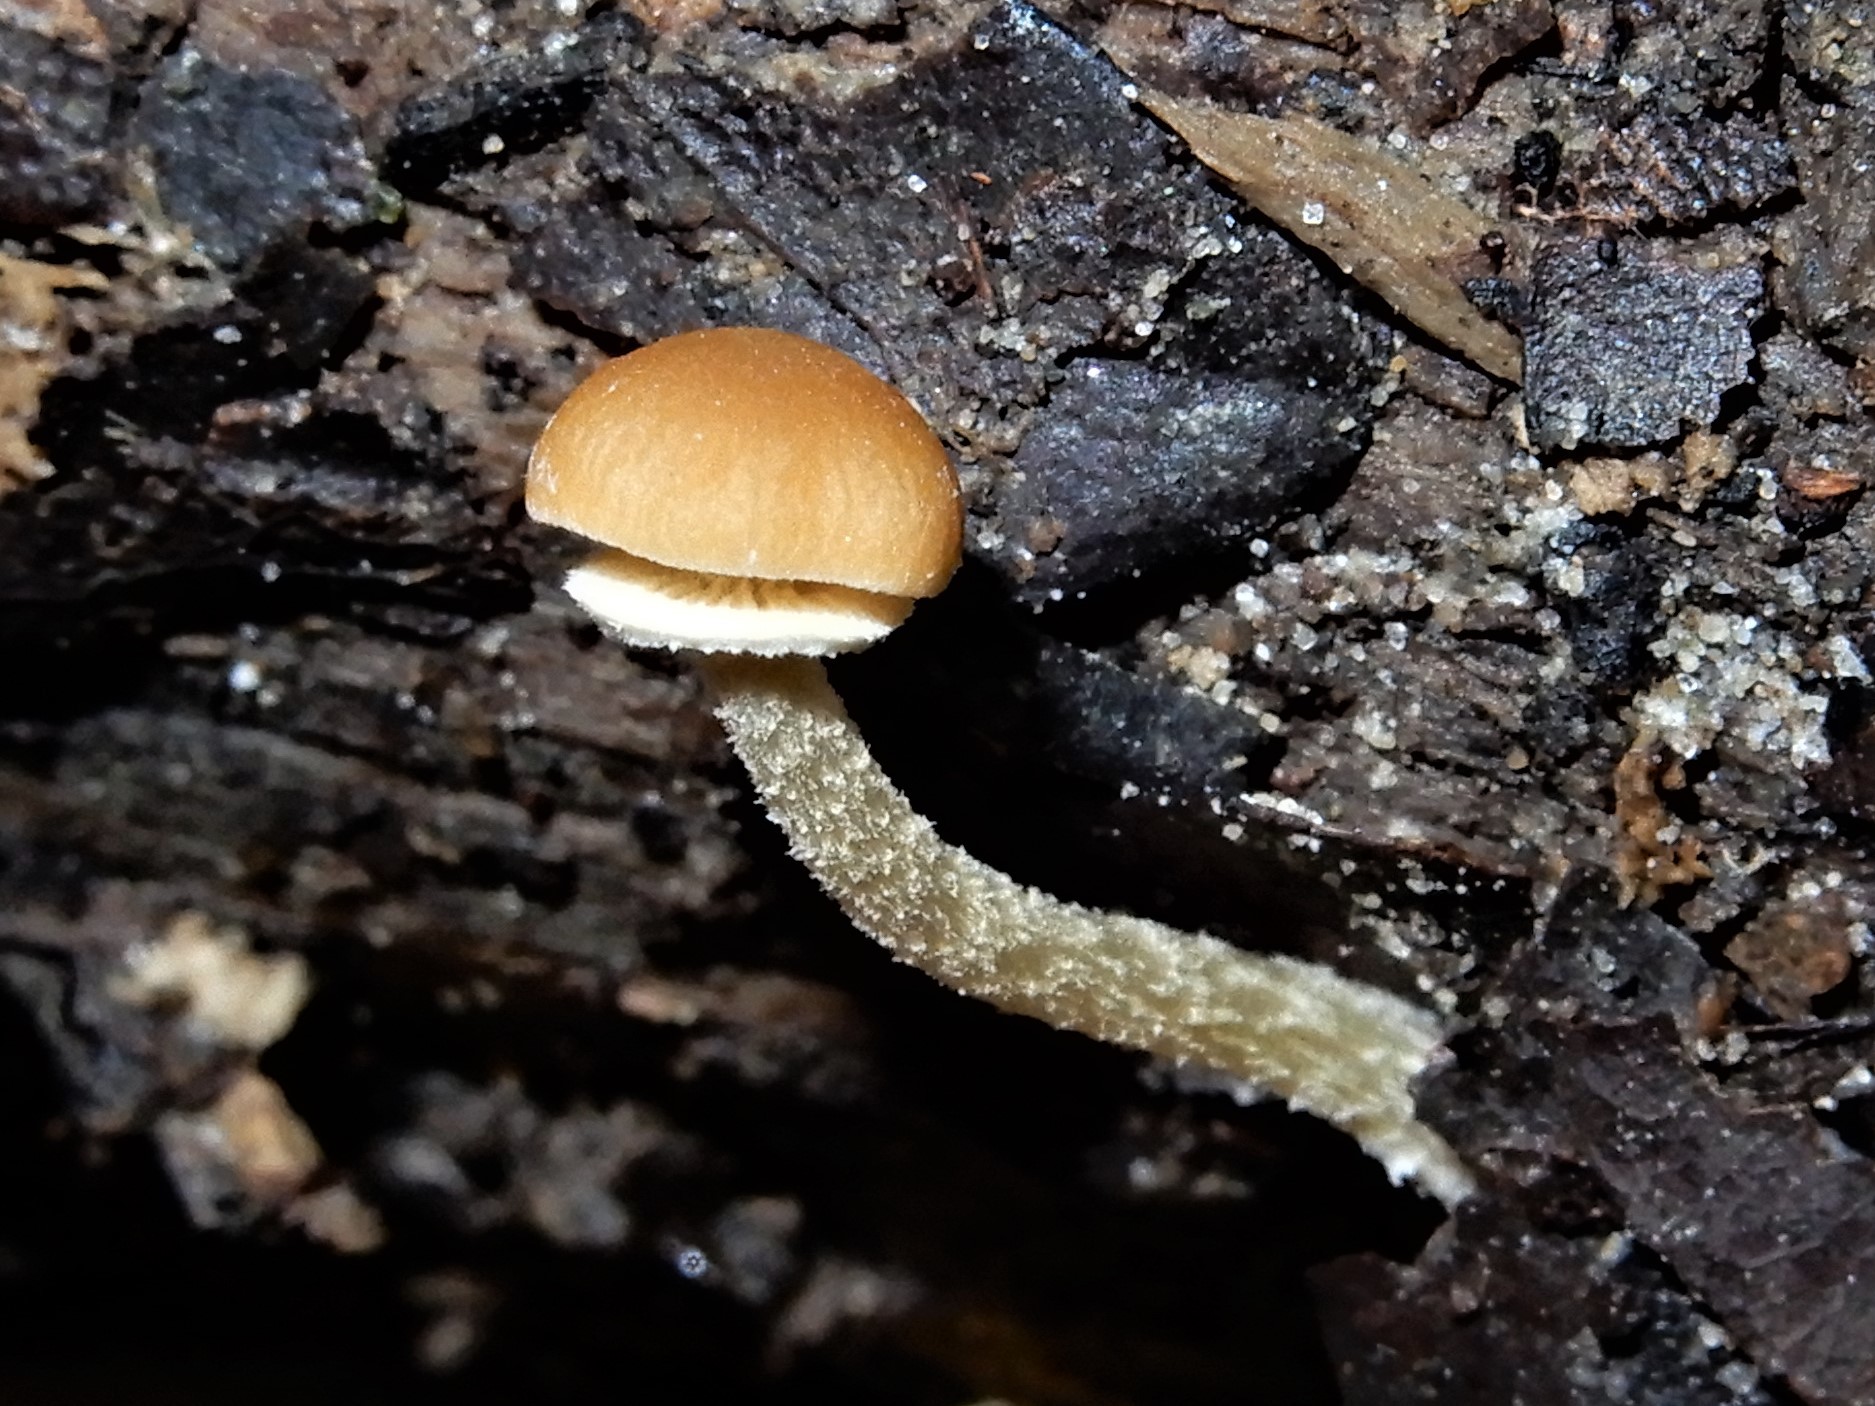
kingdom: Fungi
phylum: Basidiomycota
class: Agaricomycetes
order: Agaricales
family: Bolbitiaceae
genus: Pholiotina
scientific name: Pholiotina gracilenta
